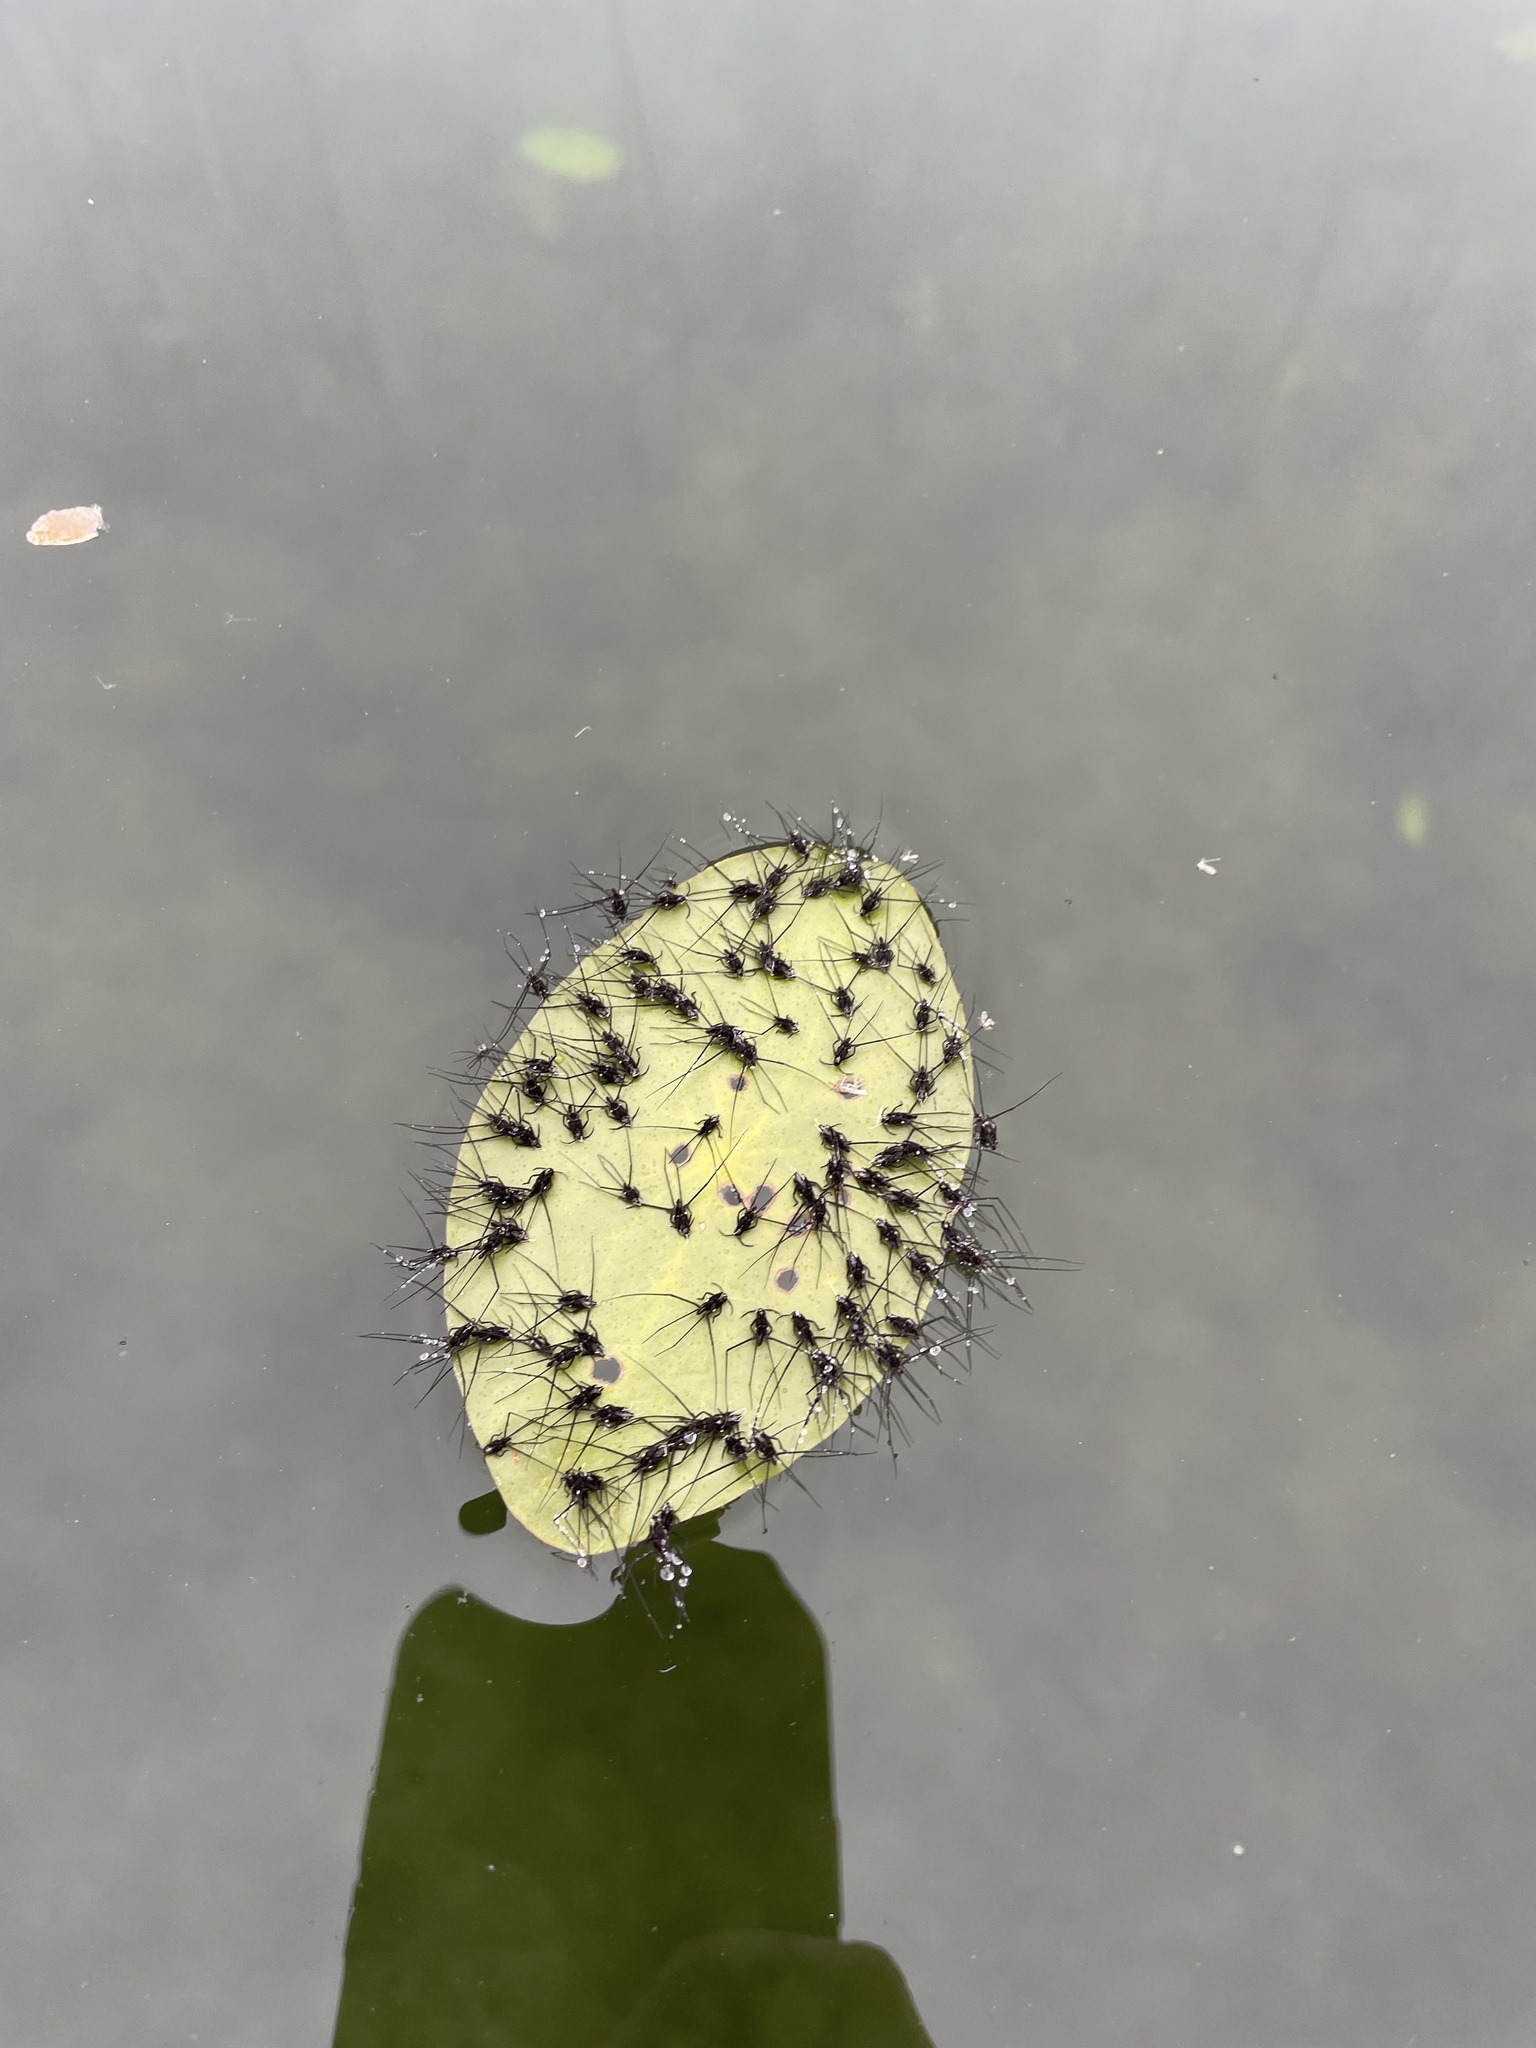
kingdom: Animalia
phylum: Arthropoda
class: Insecta
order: Hemiptera
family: Gerridae
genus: Metrobates
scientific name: Metrobates hesperius
